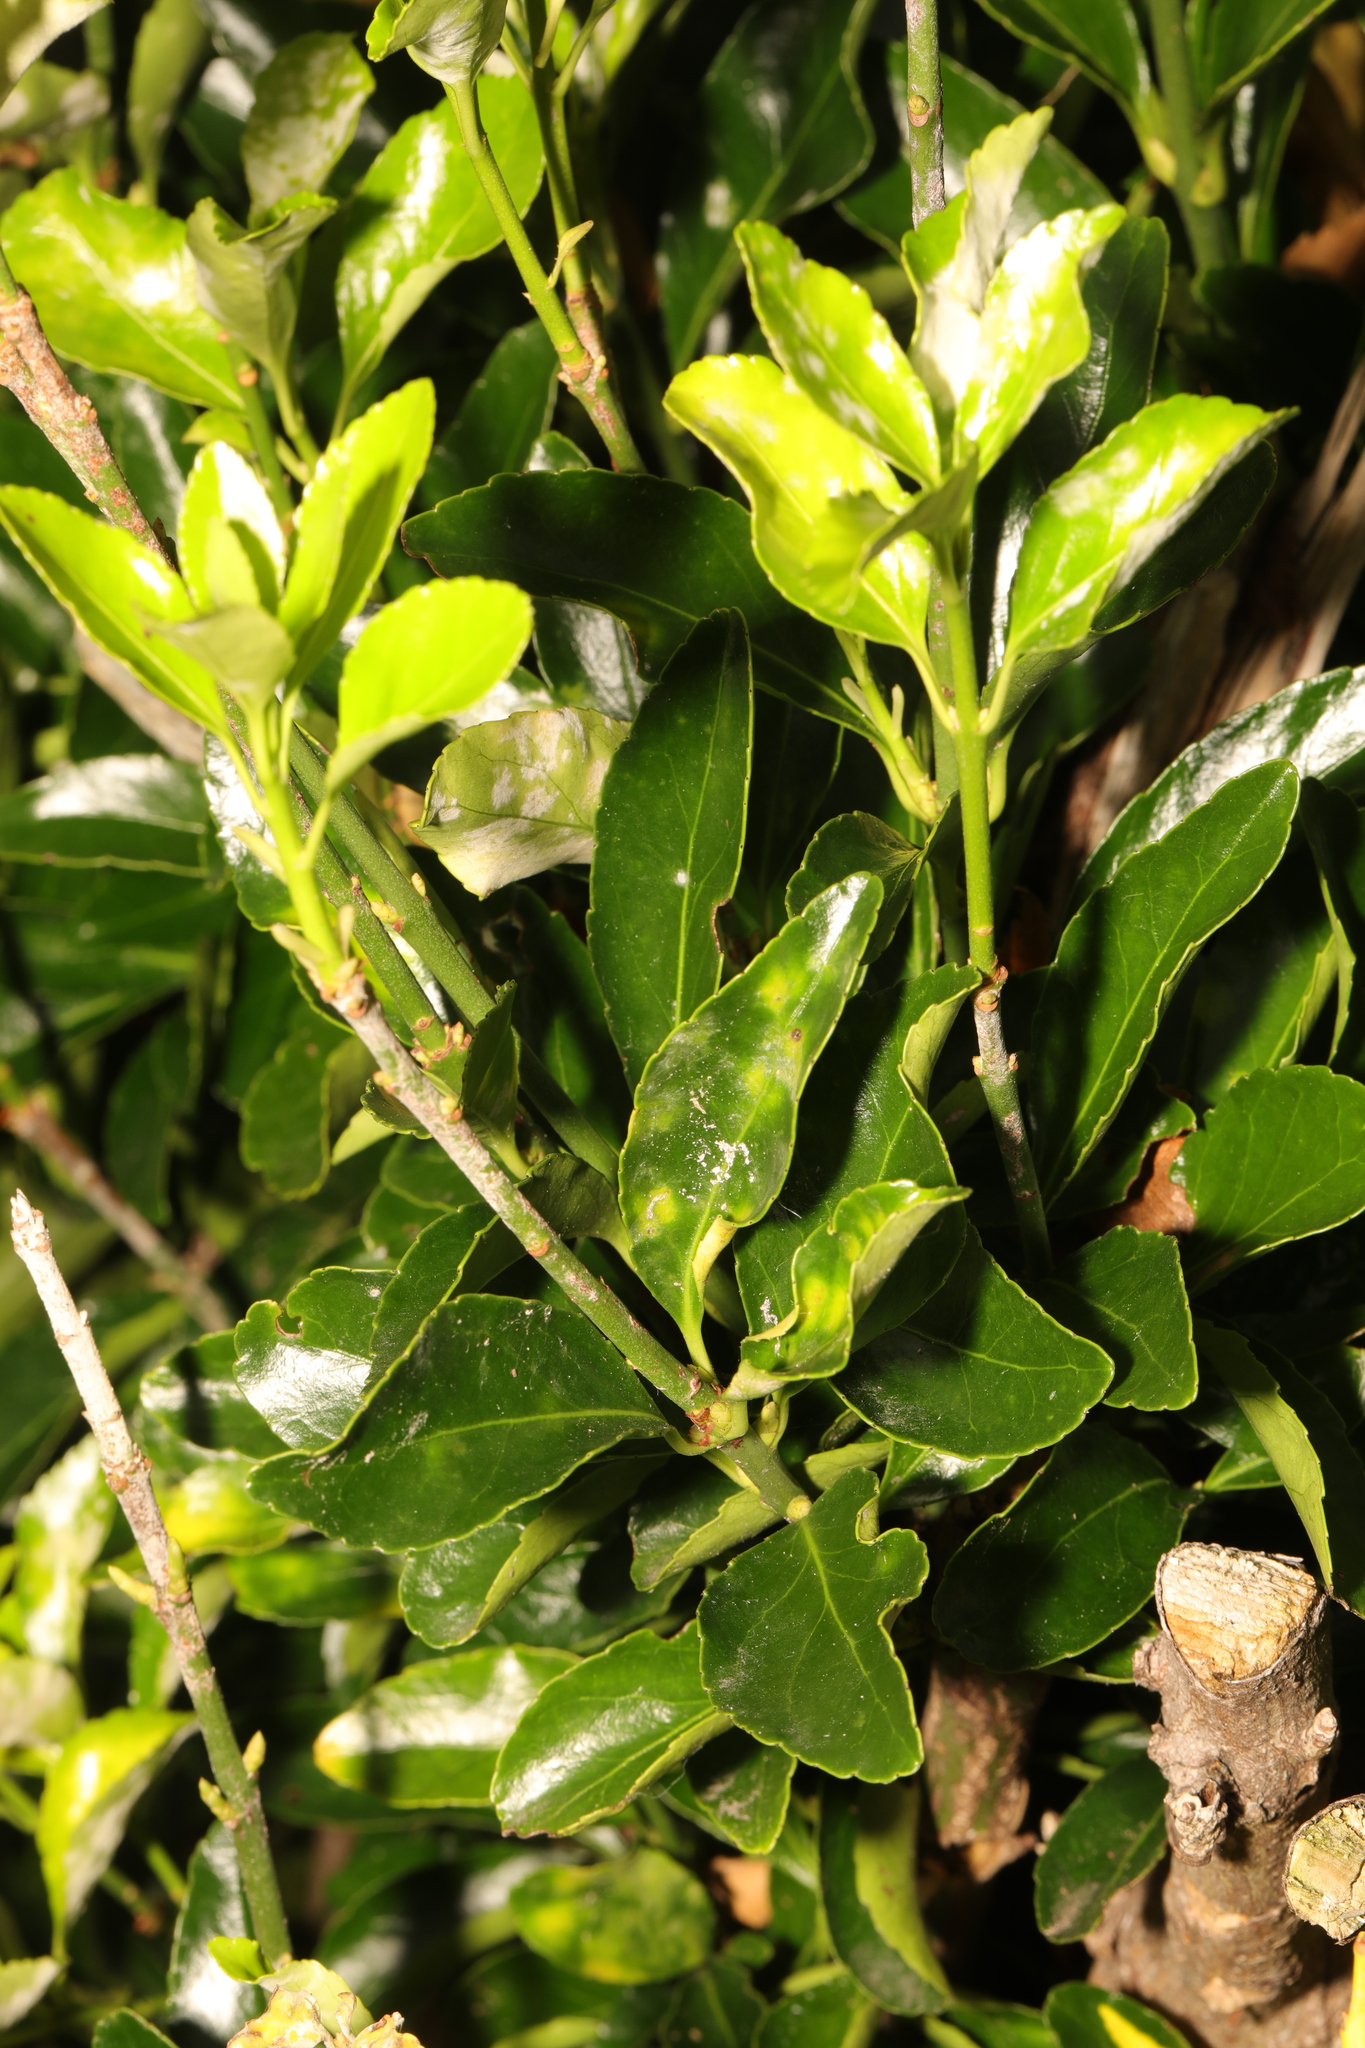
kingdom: Plantae
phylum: Tracheophyta
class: Magnoliopsida
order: Celastrales
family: Celastraceae
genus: Euonymus
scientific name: Euonymus japonicus
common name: Japanese spindletree
